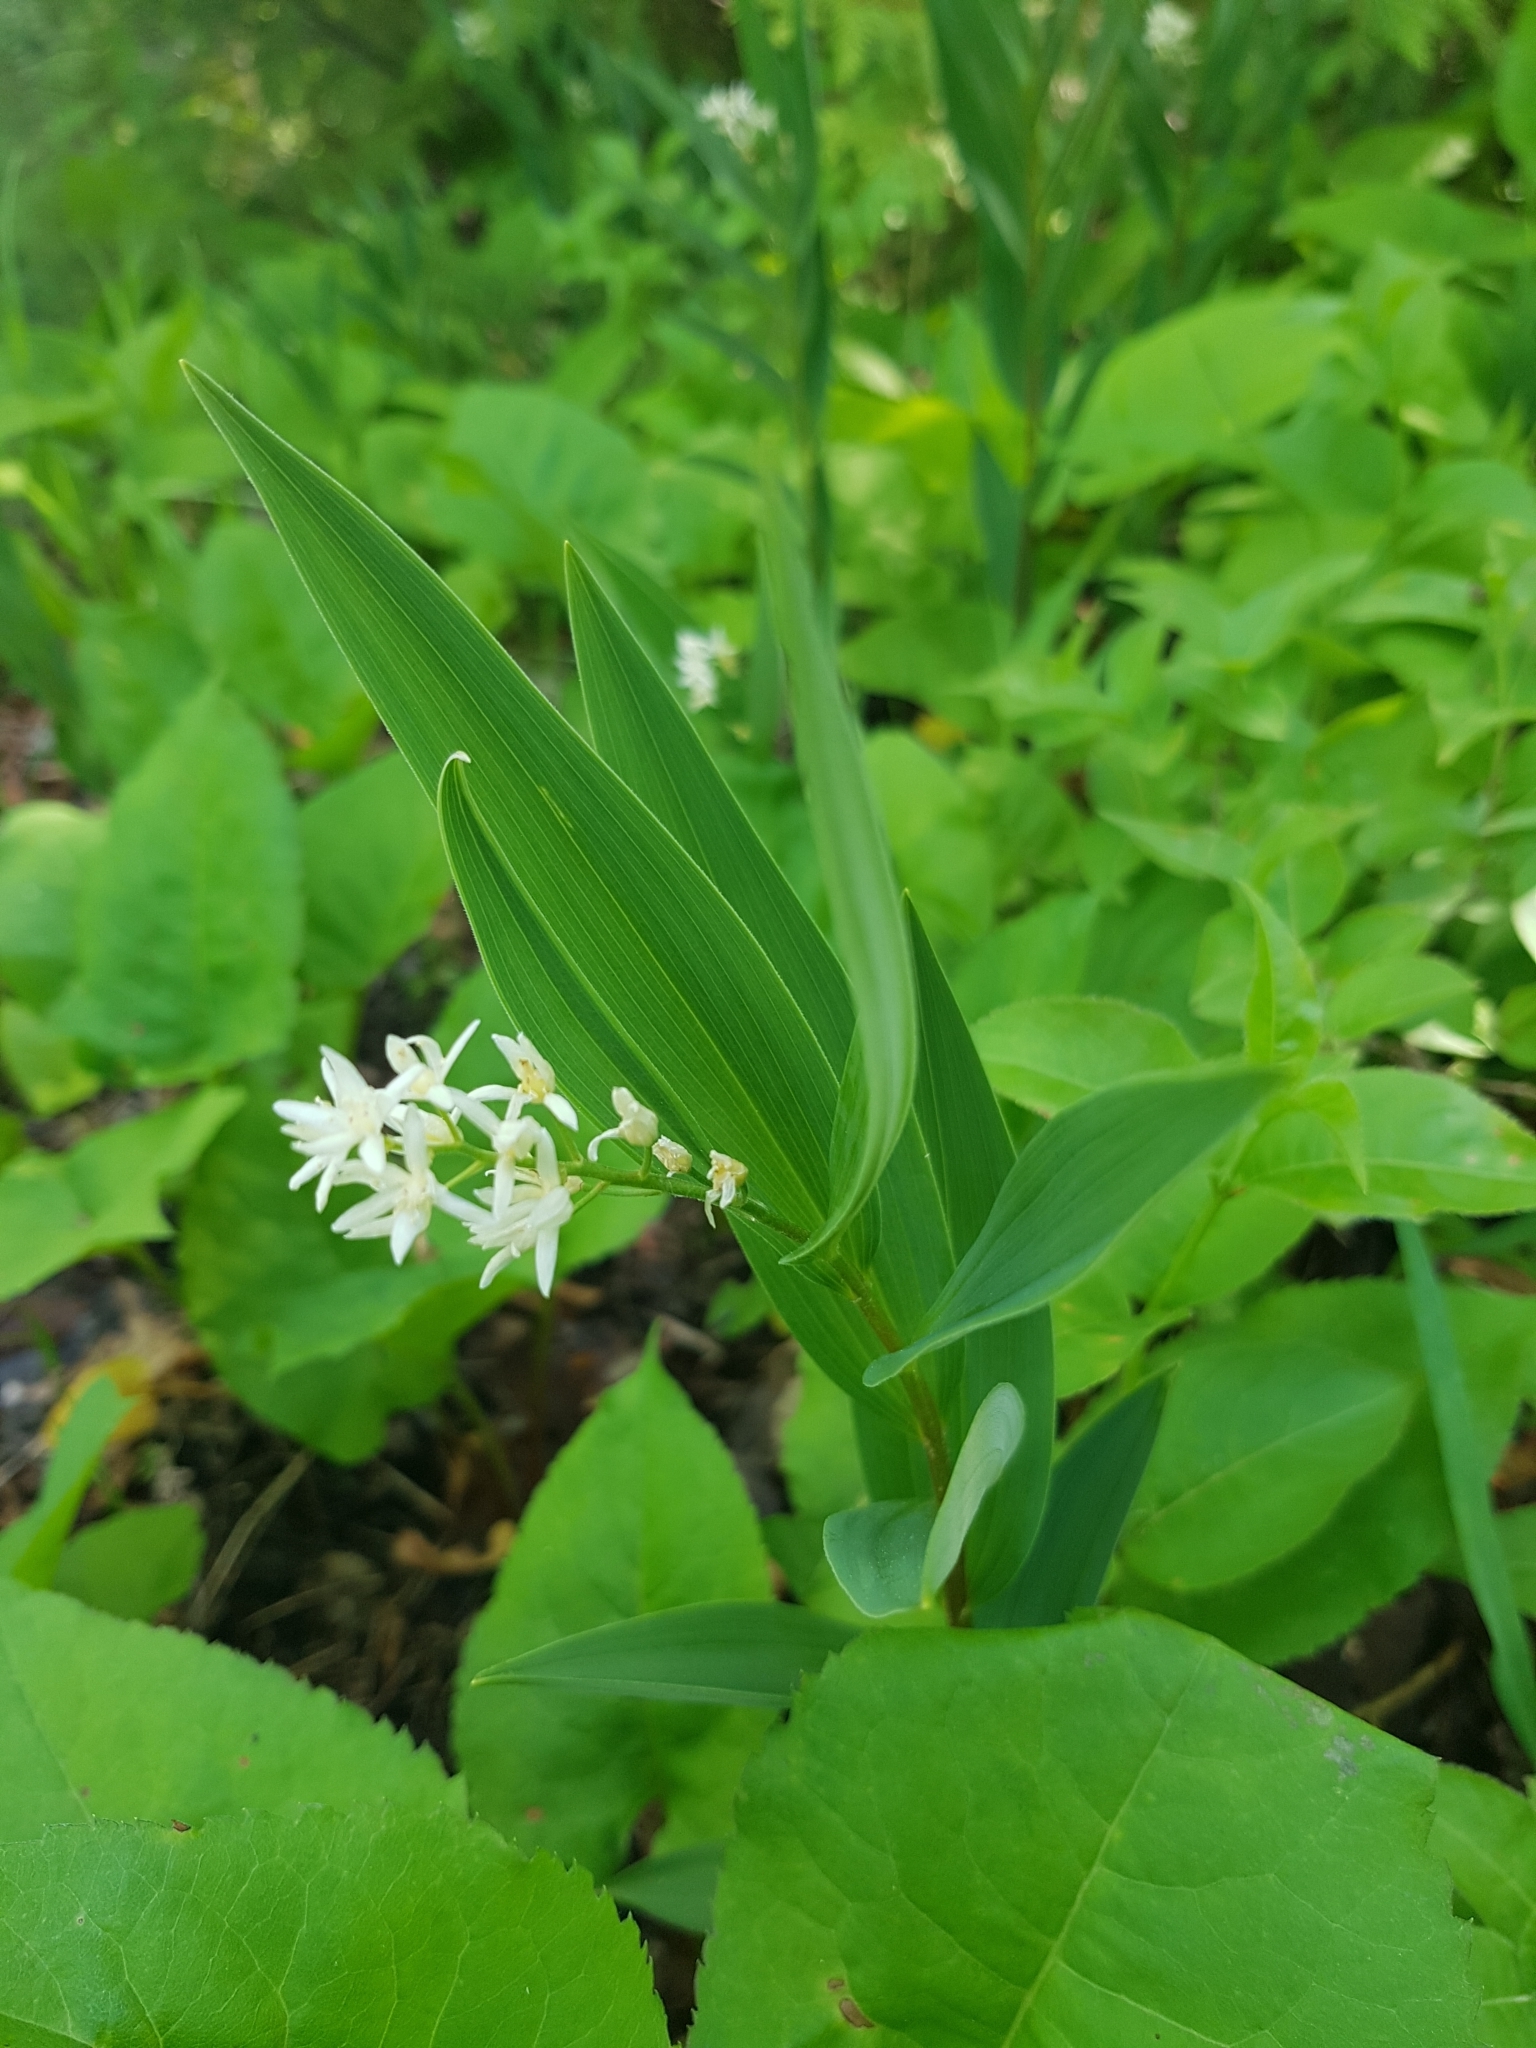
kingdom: Plantae
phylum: Tracheophyta
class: Liliopsida
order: Asparagales
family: Asparagaceae
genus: Maianthemum
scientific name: Maianthemum stellatum
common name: Little false solomon's seal
